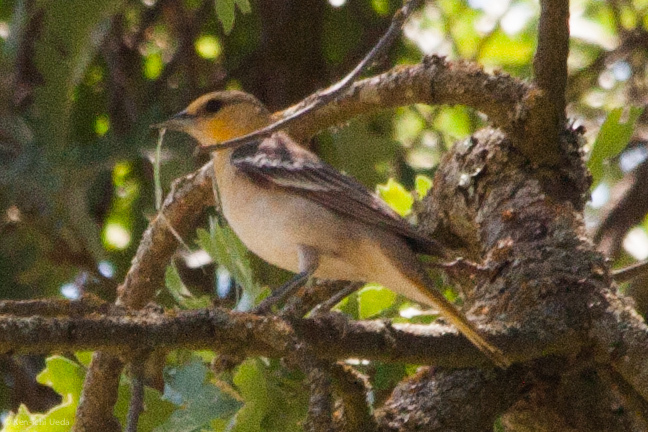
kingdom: Animalia
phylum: Chordata
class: Aves
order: Passeriformes
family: Icteridae
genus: Icterus
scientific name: Icterus bullockii
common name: Bullock's oriole
